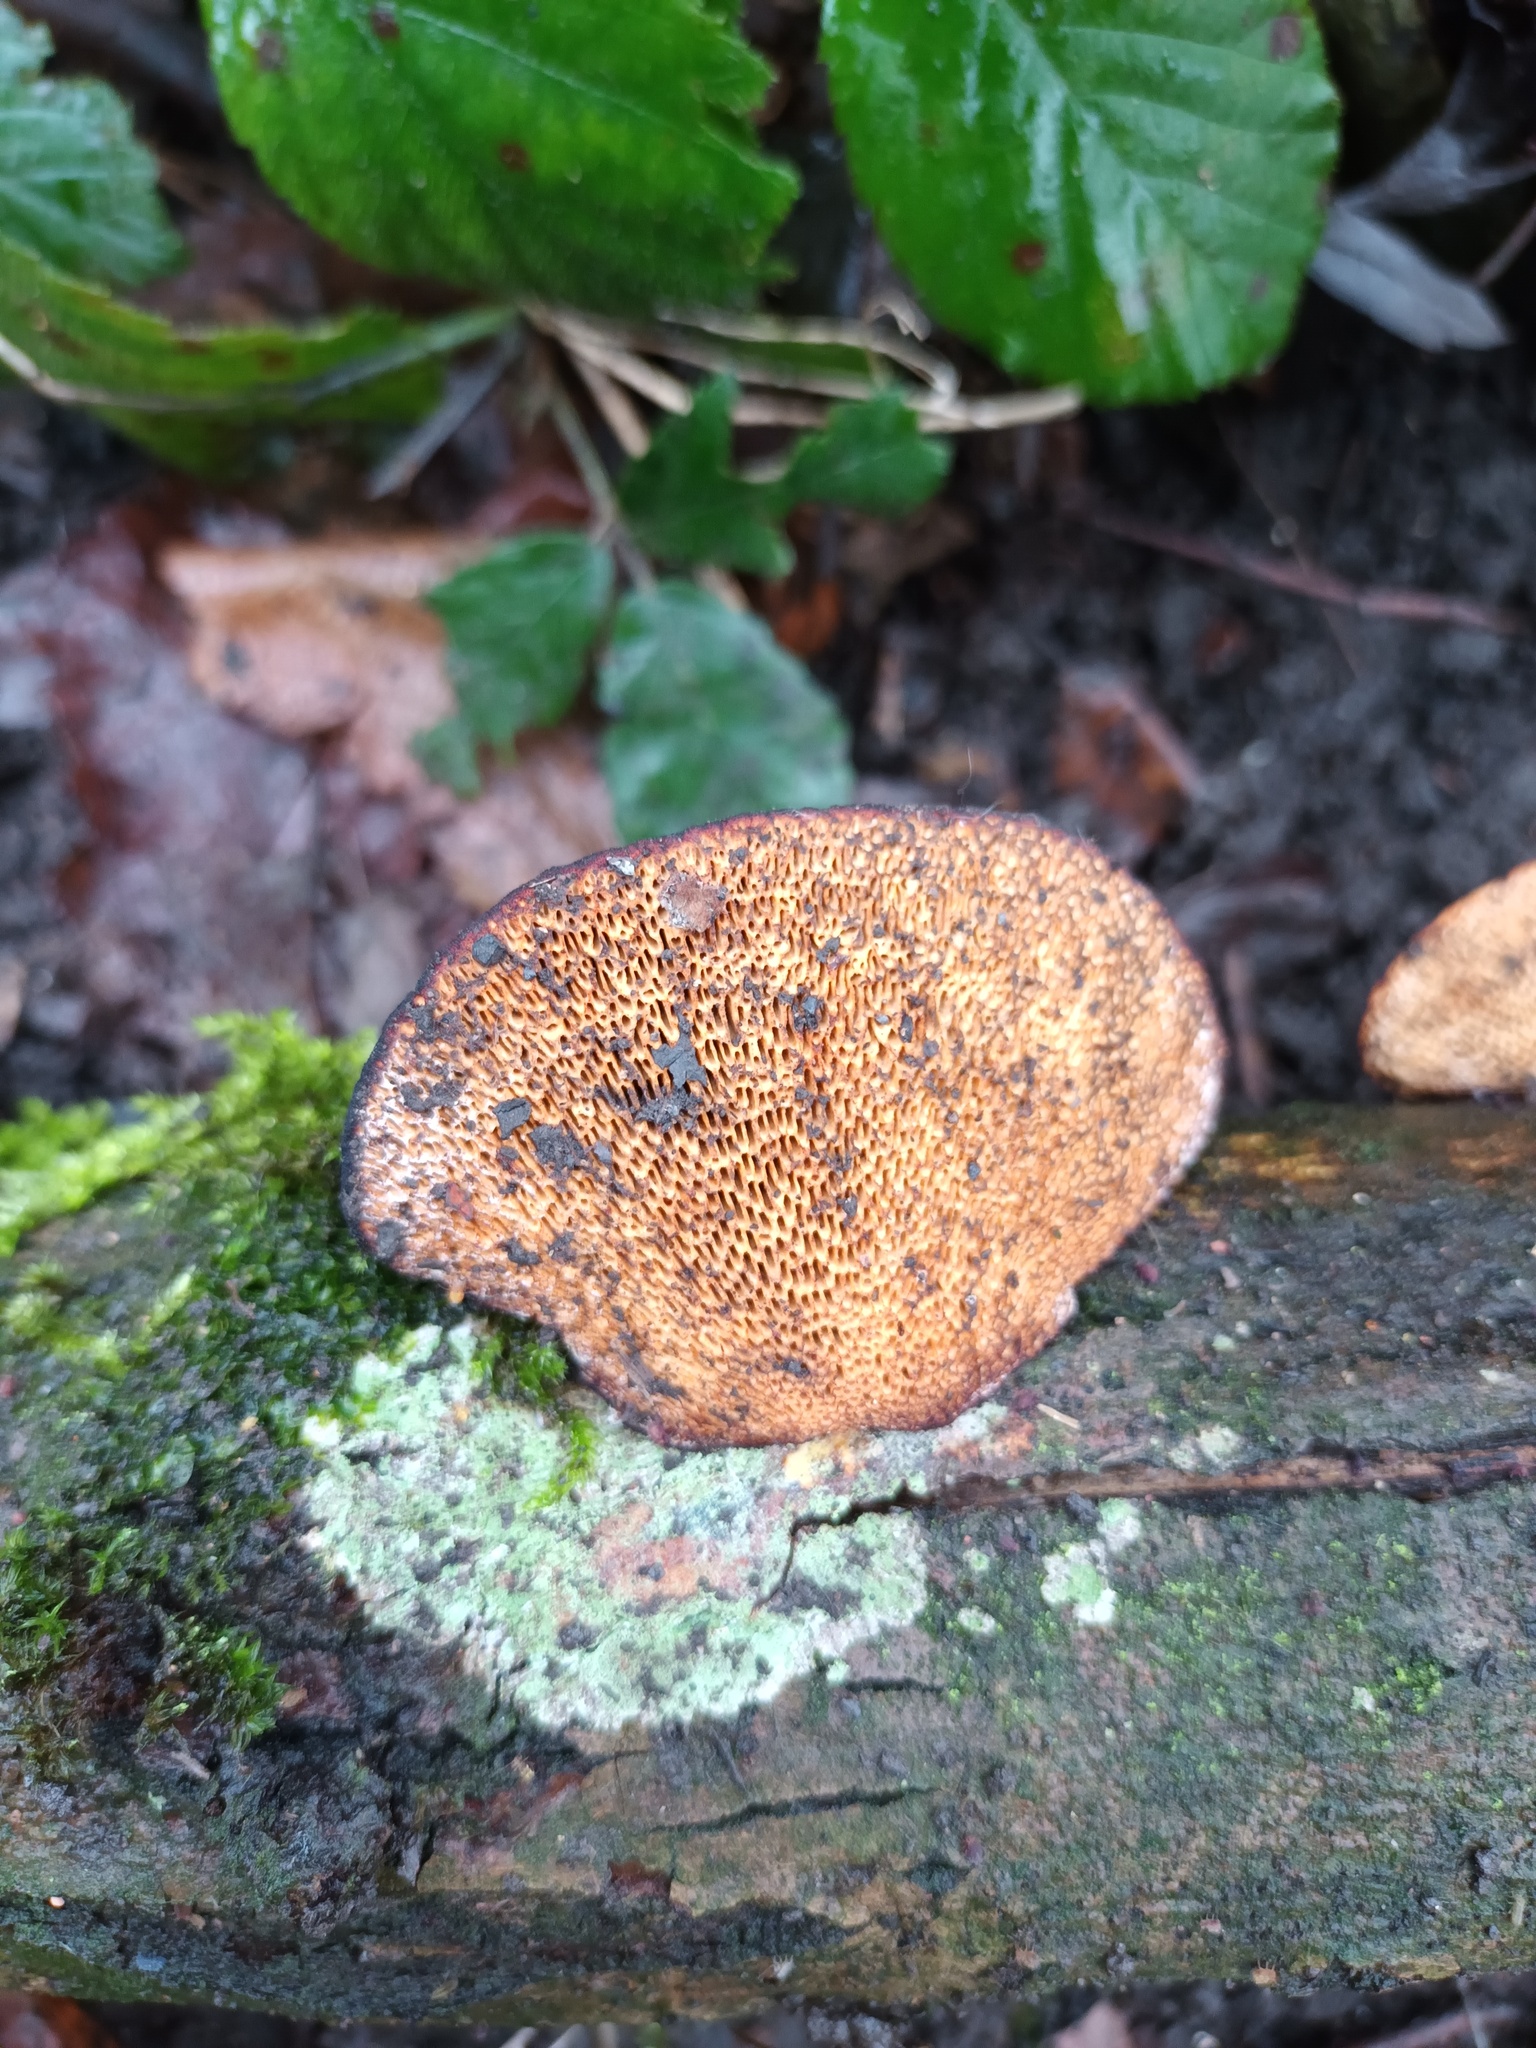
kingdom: Fungi
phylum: Basidiomycota
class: Agaricomycetes
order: Polyporales
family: Polyporaceae
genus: Daedaleopsis
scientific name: Daedaleopsis confragosa
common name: Blushing bracket
